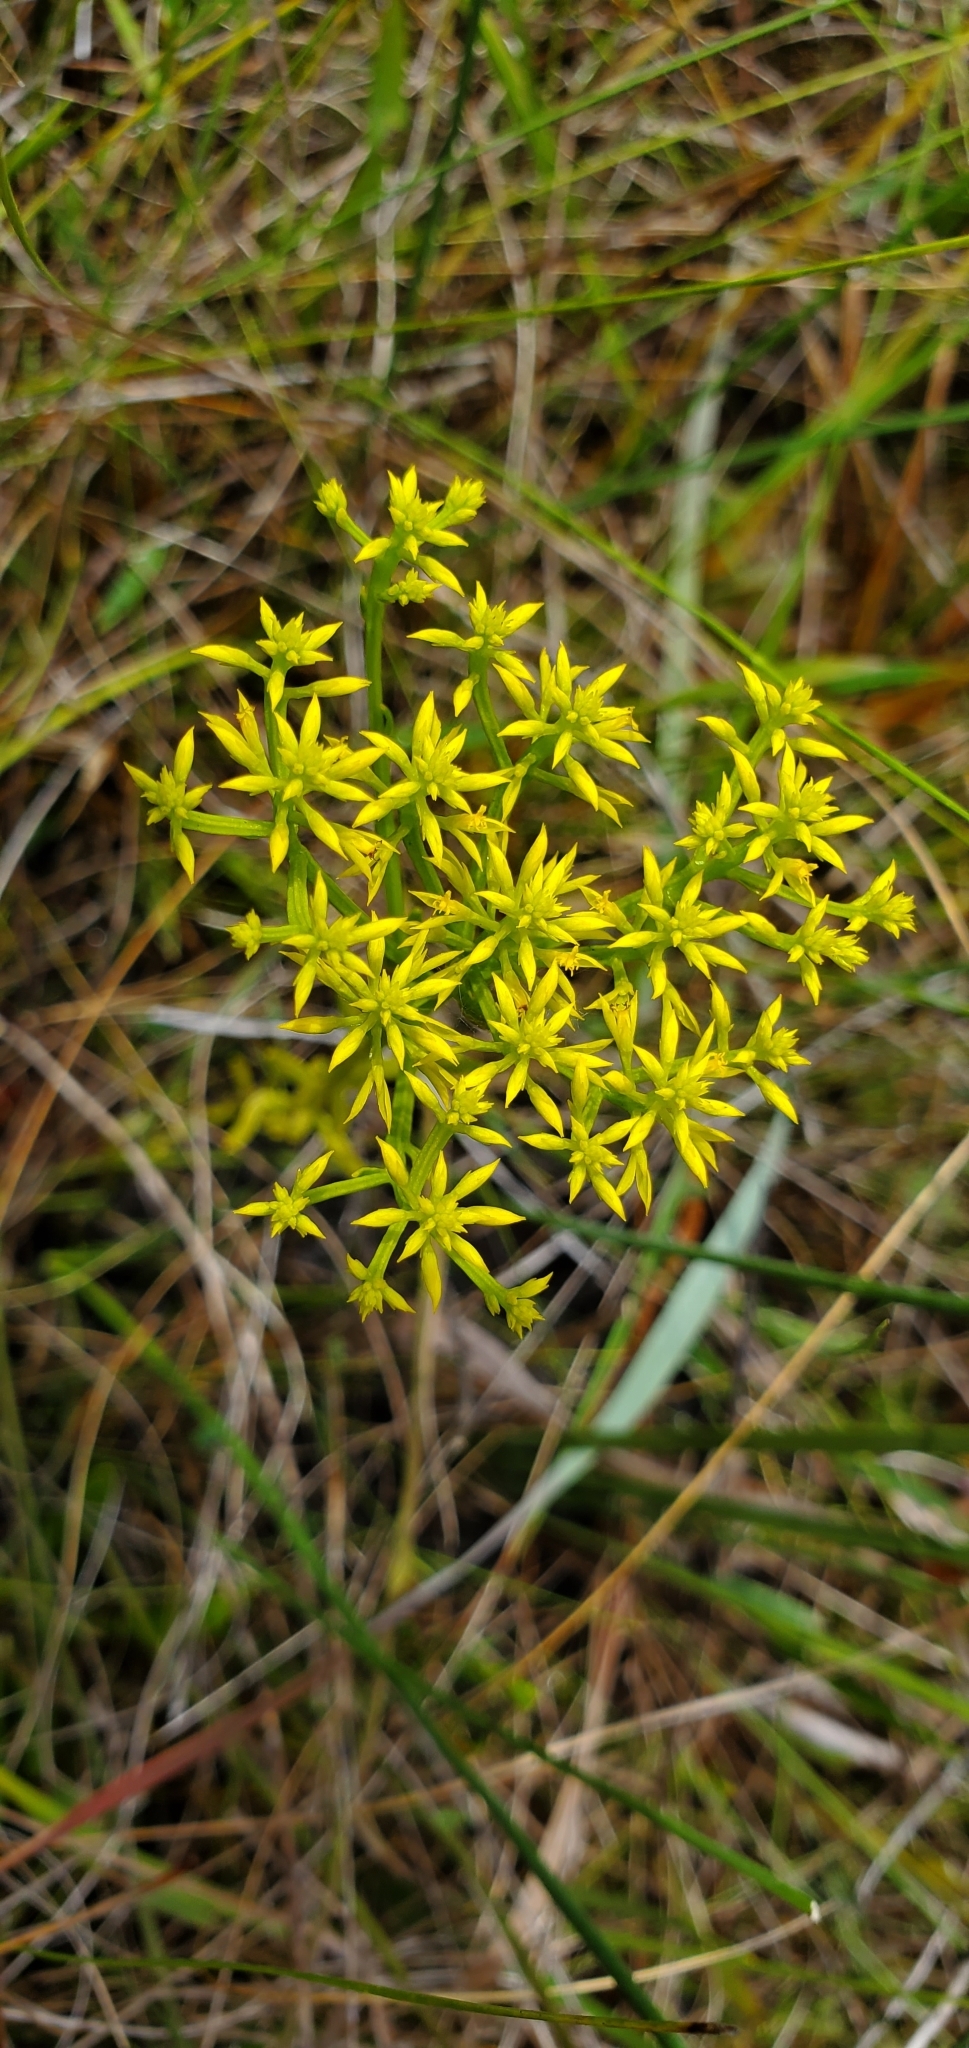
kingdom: Plantae
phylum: Tracheophyta
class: Magnoliopsida
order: Fabales
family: Polygalaceae
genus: Polygala
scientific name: Polygala ramosa
